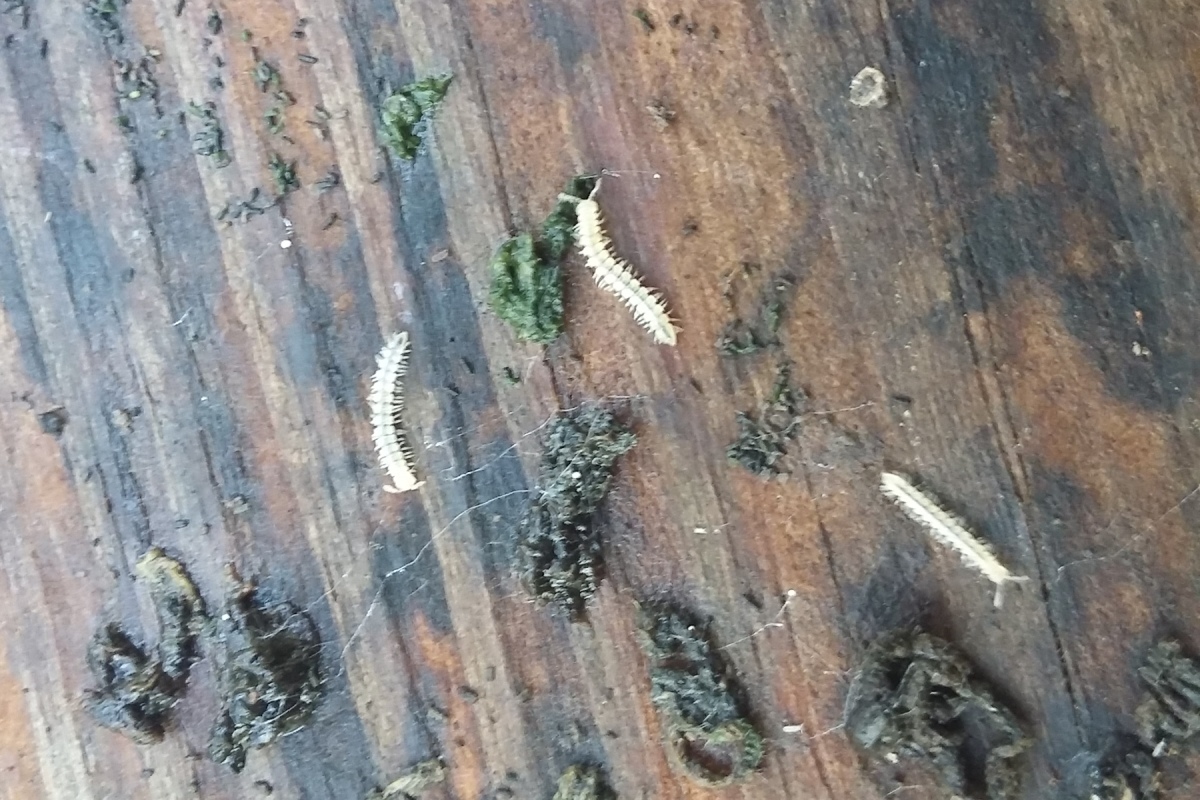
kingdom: Animalia
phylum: Arthropoda
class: Diplopoda
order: Polydesmida
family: Polydesmidae
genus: Brachydesmus
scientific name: Brachydesmus superus
